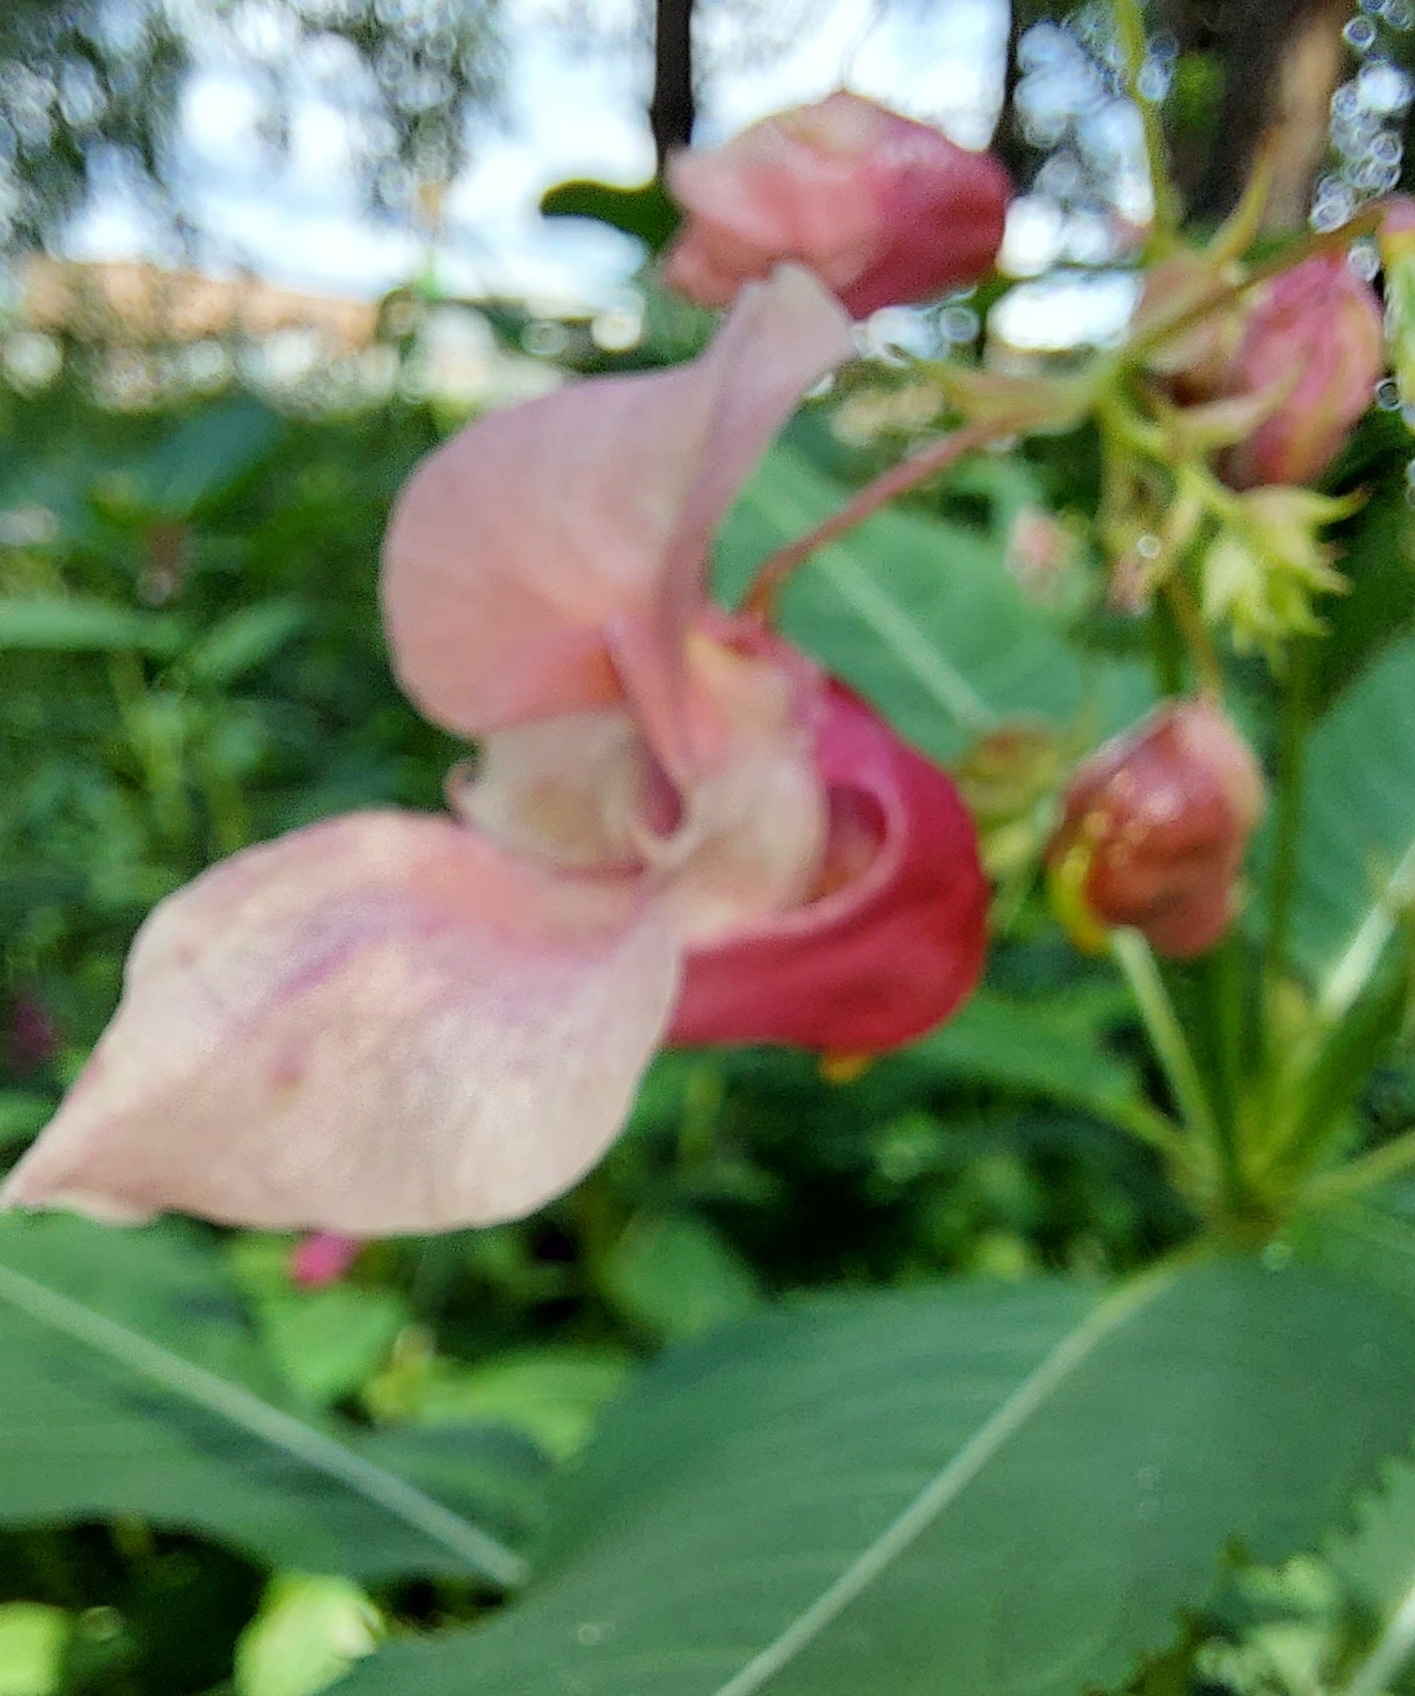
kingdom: Plantae
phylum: Tracheophyta
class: Magnoliopsida
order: Ericales
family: Balsaminaceae
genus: Impatiens
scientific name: Impatiens glandulifera
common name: Himalayan balsam
